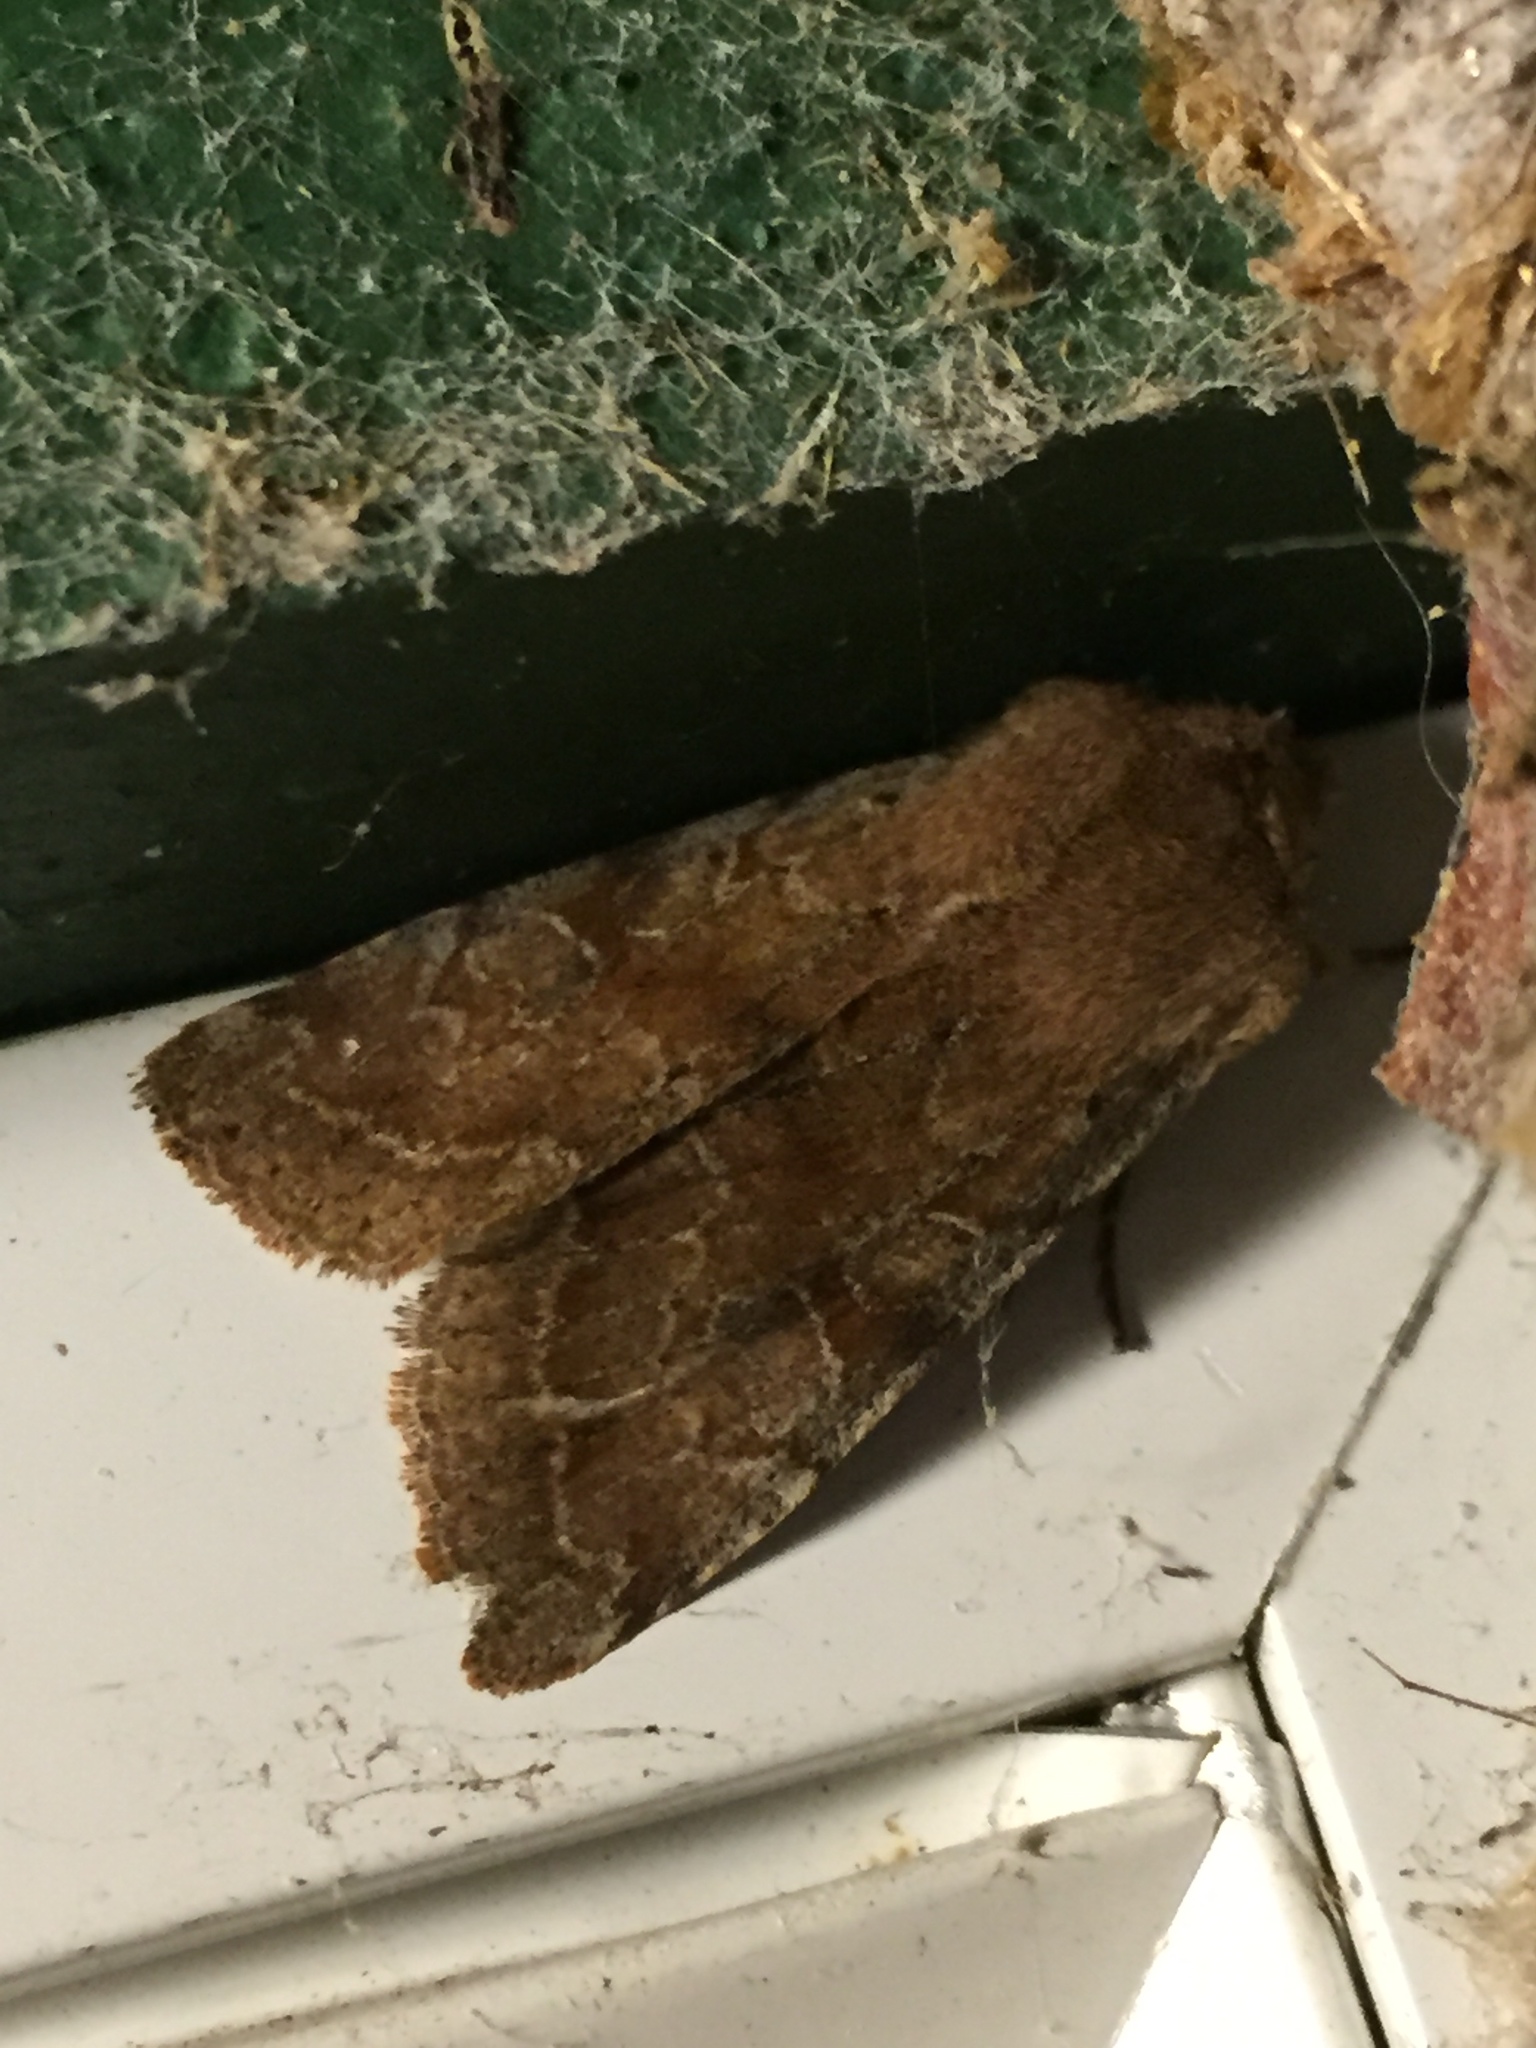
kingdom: Animalia
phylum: Arthropoda
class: Insecta
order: Lepidoptera
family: Noctuidae
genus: Orthosia
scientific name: Orthosia hibisci
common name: Green fruitworm
